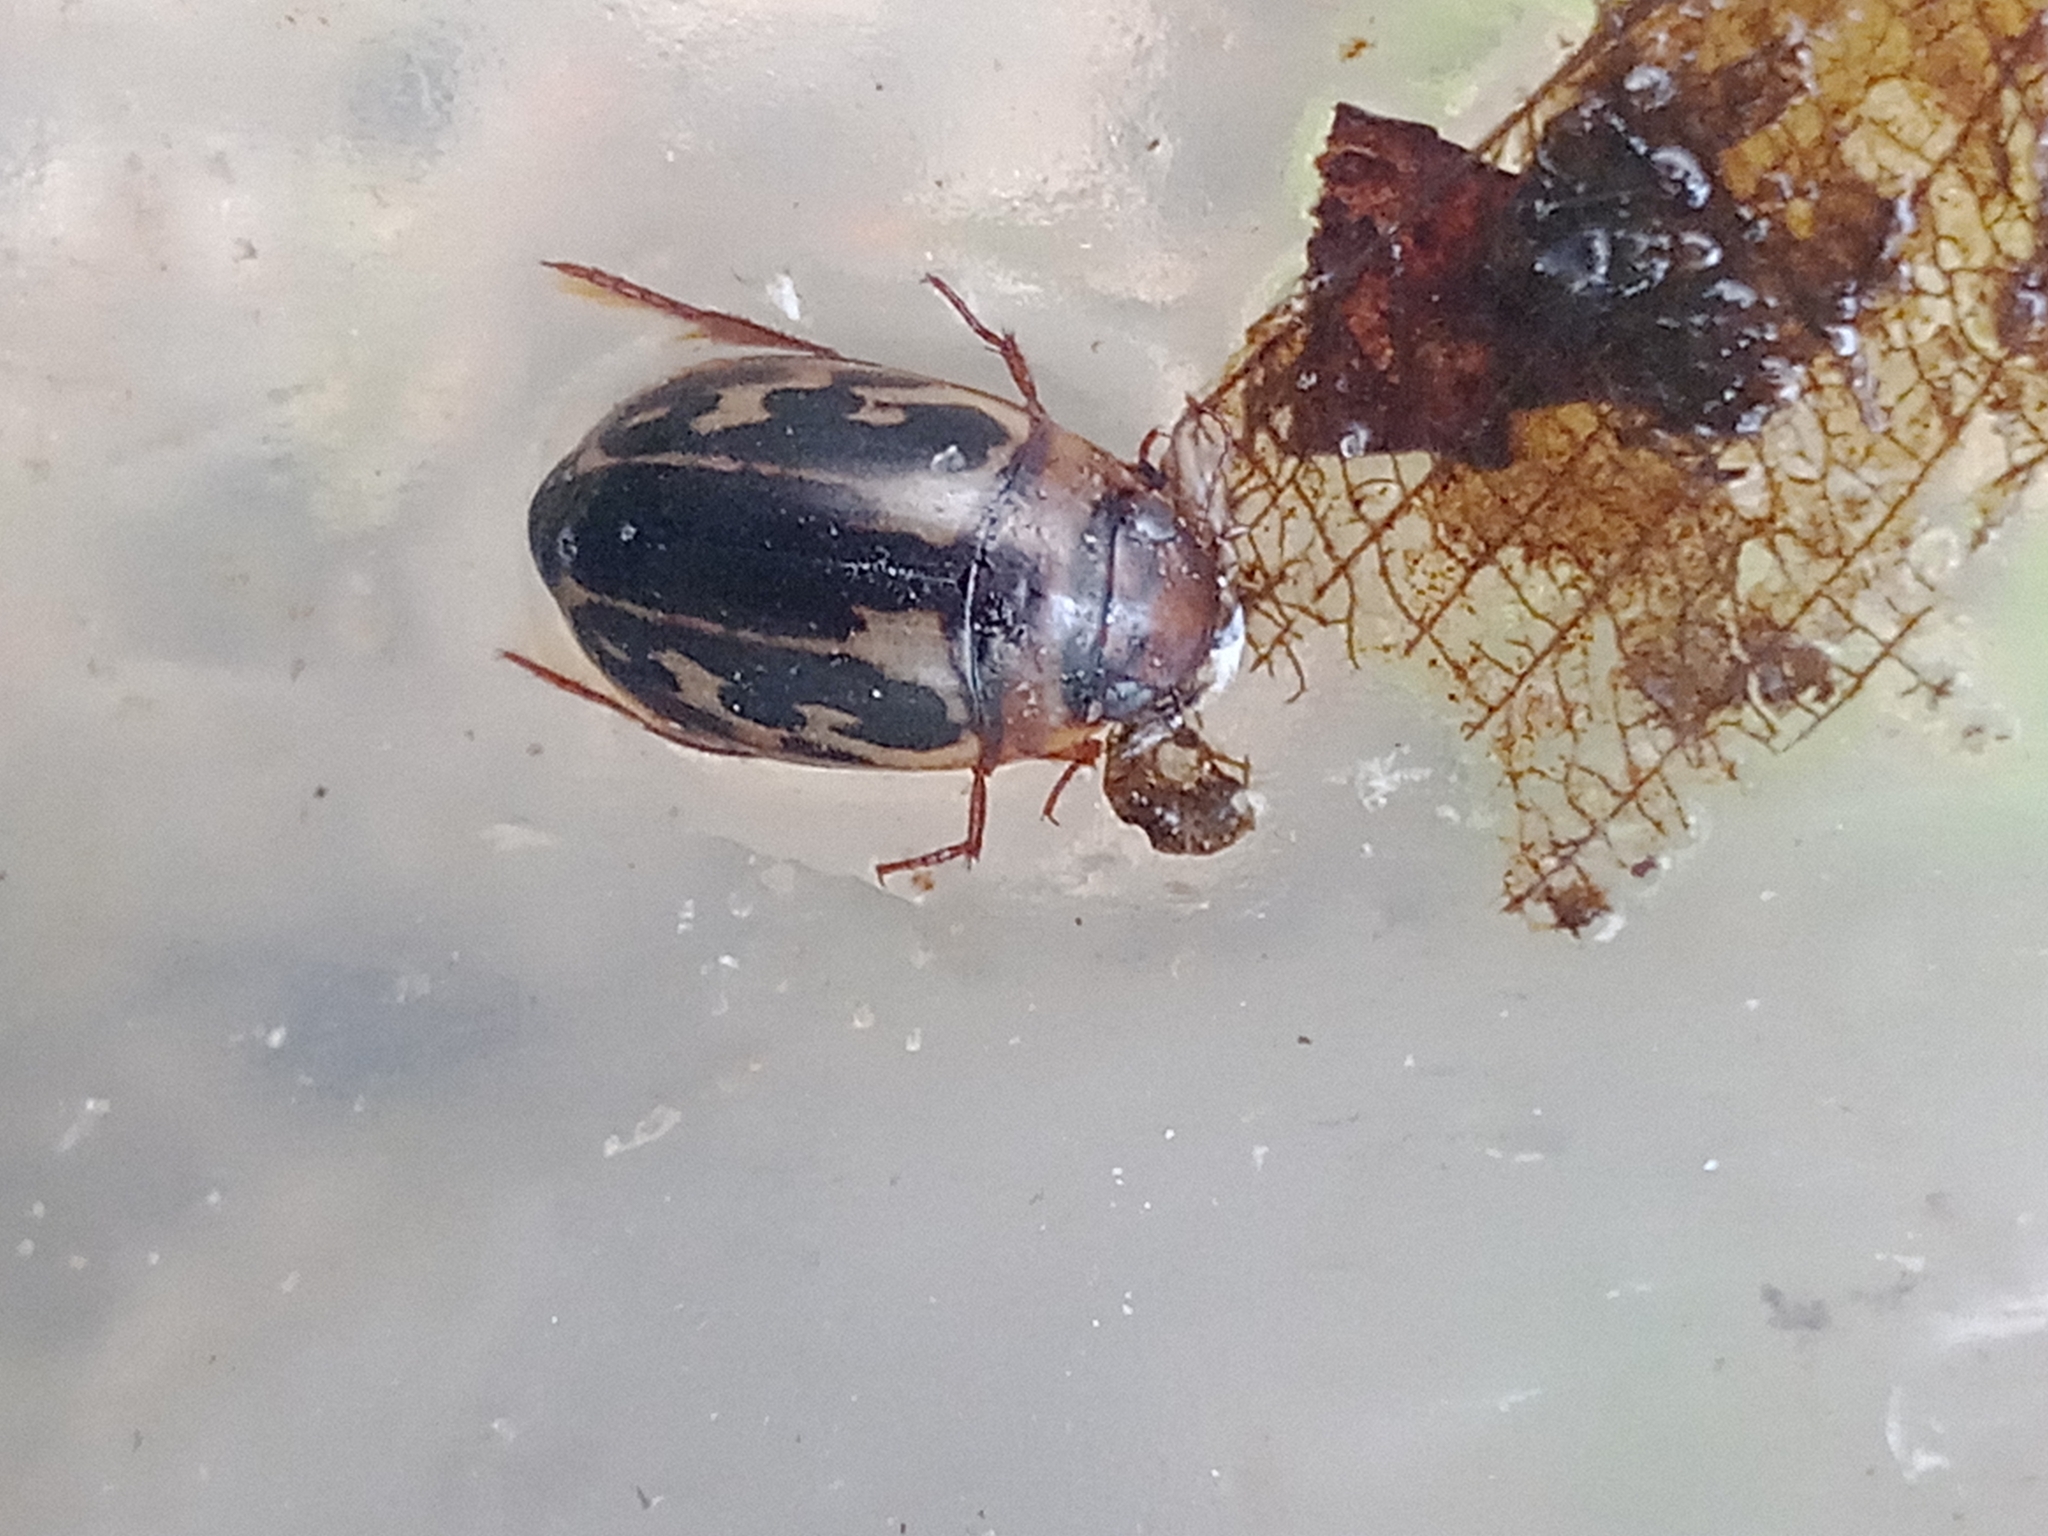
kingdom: Animalia
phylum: Arthropoda
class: Insecta
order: Coleoptera
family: Dytiscidae
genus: Platambus
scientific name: Platambus maculatus
